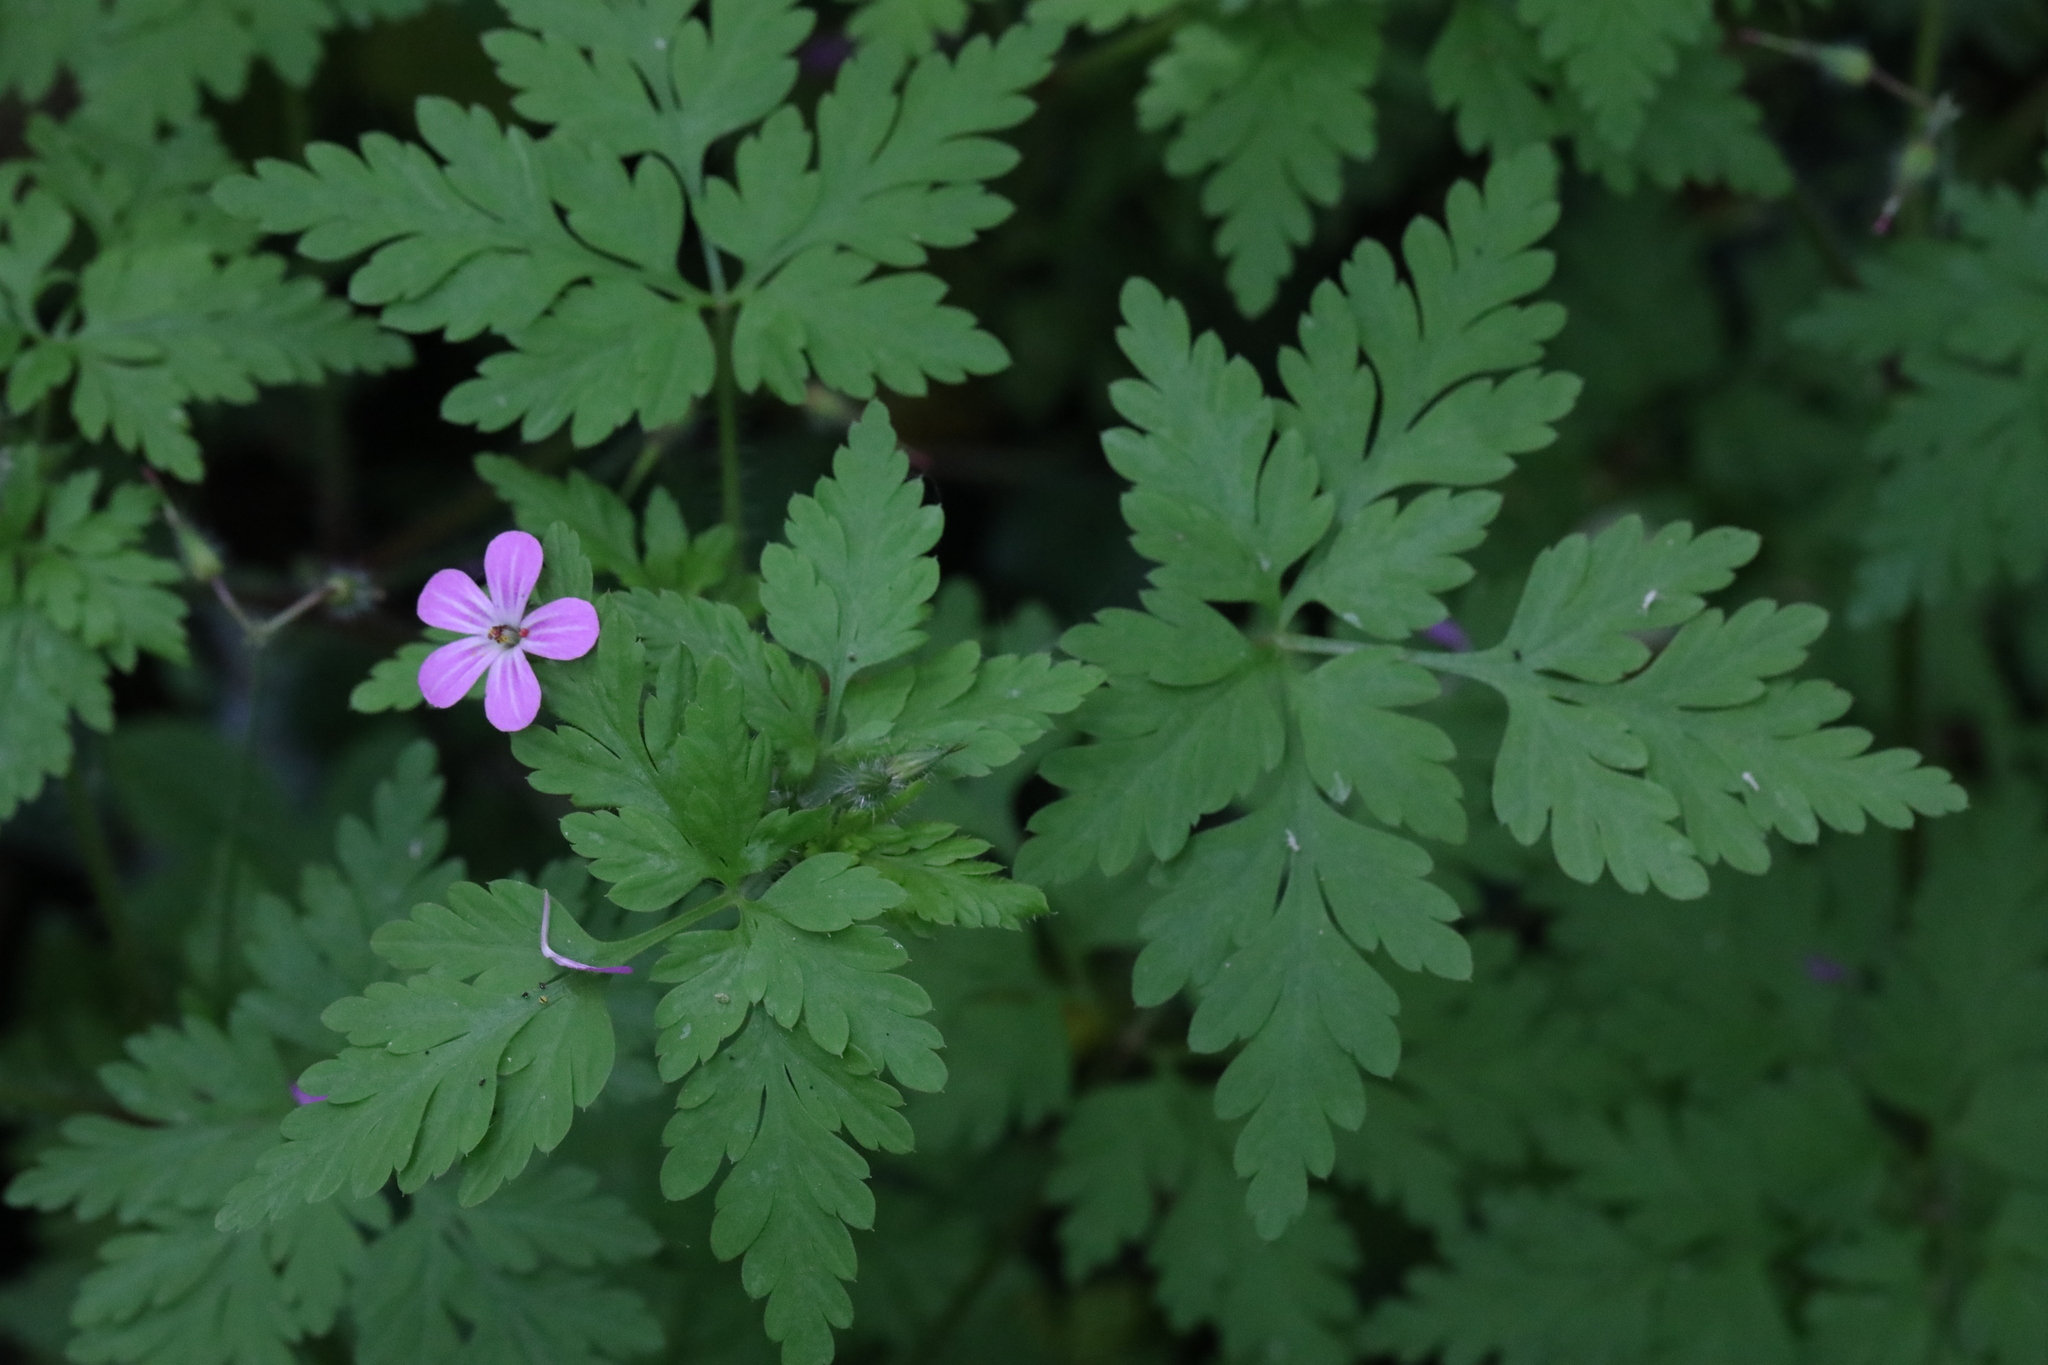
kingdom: Plantae
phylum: Tracheophyta
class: Magnoliopsida
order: Geraniales
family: Geraniaceae
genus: Geranium
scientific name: Geranium robertianum
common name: Herb-robert
